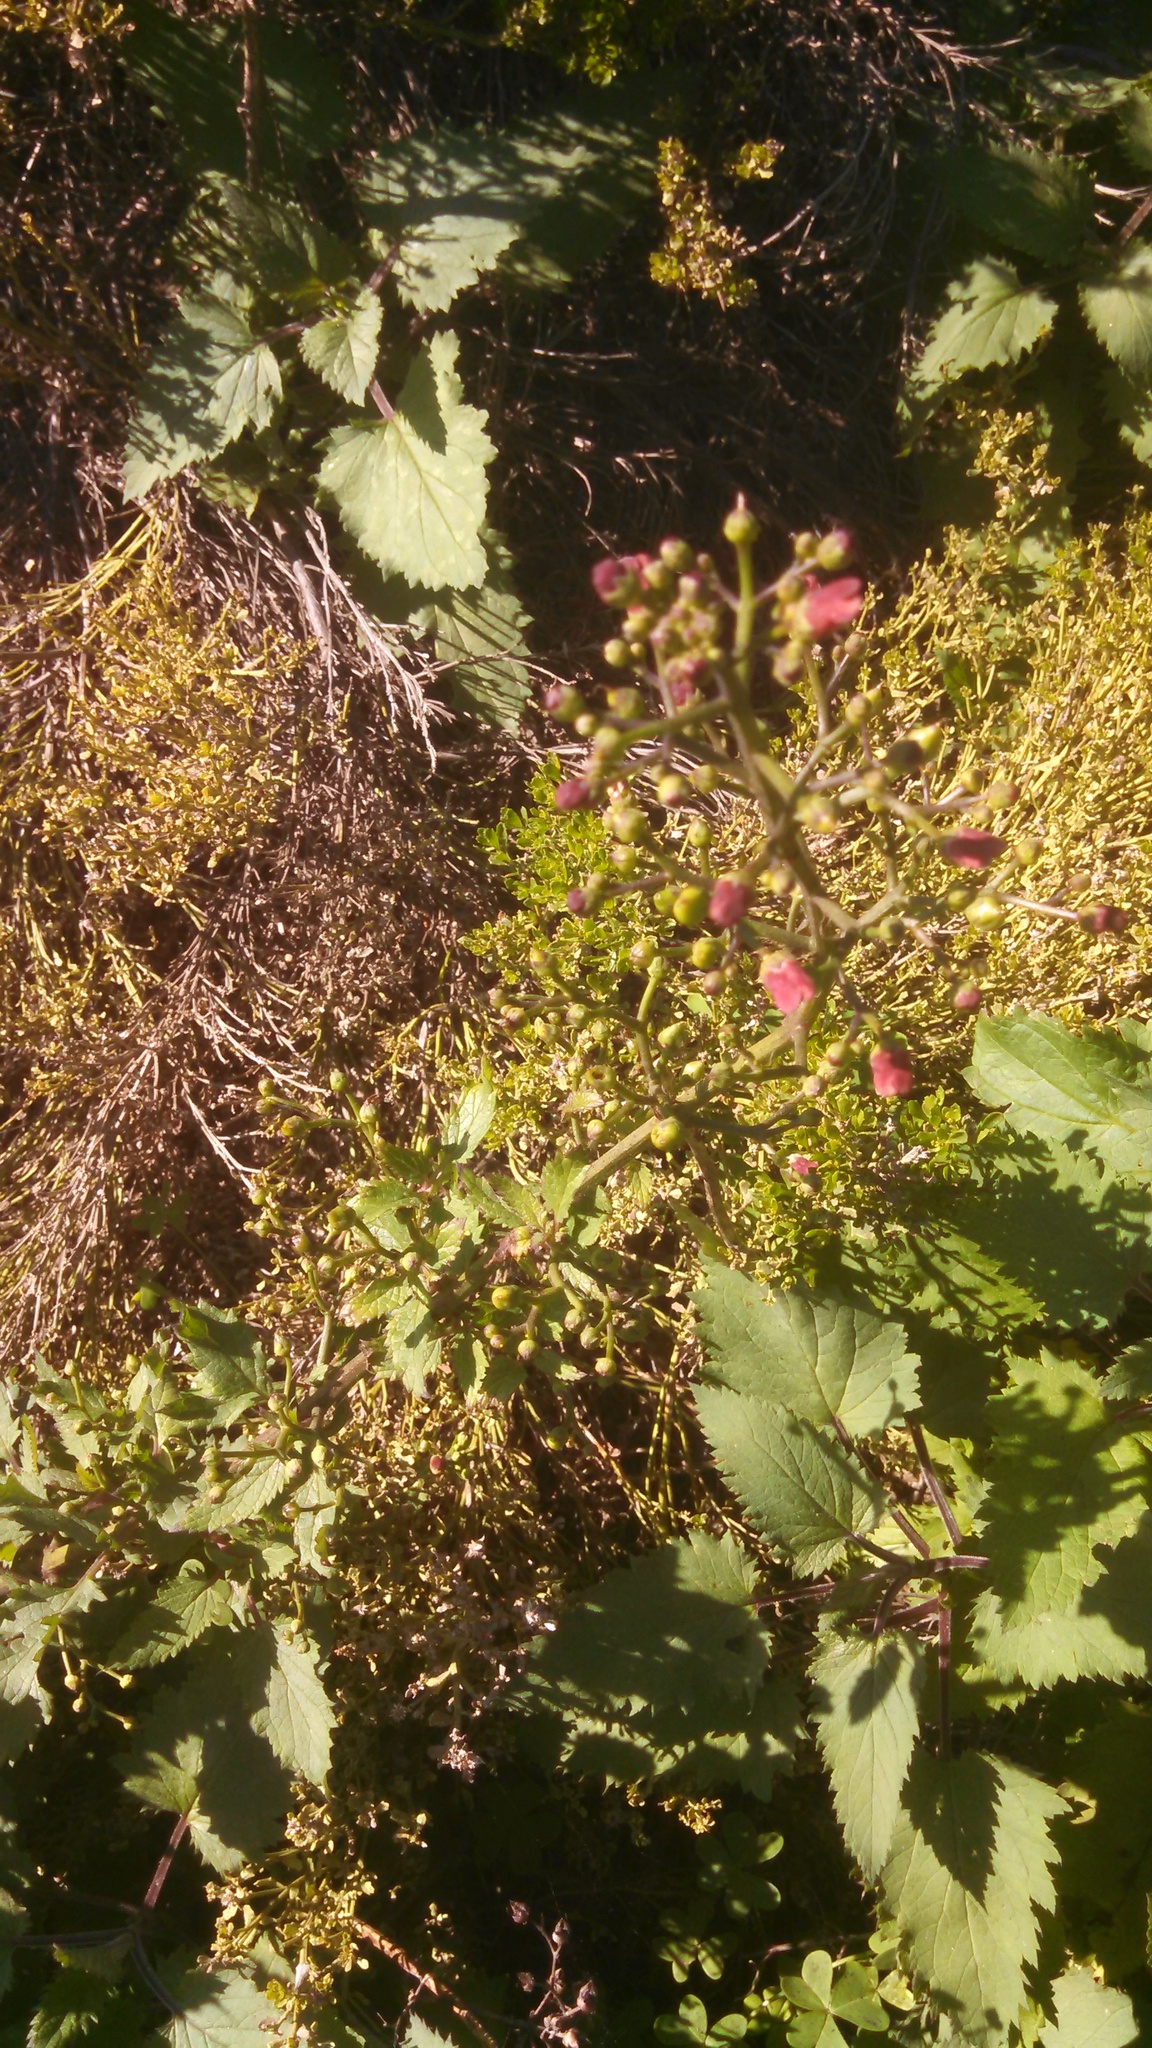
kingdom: Plantae
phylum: Tracheophyta
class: Magnoliopsida
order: Lamiales
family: Scrophulariaceae
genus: Scrophularia
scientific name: Scrophularia californica
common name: California figwort
